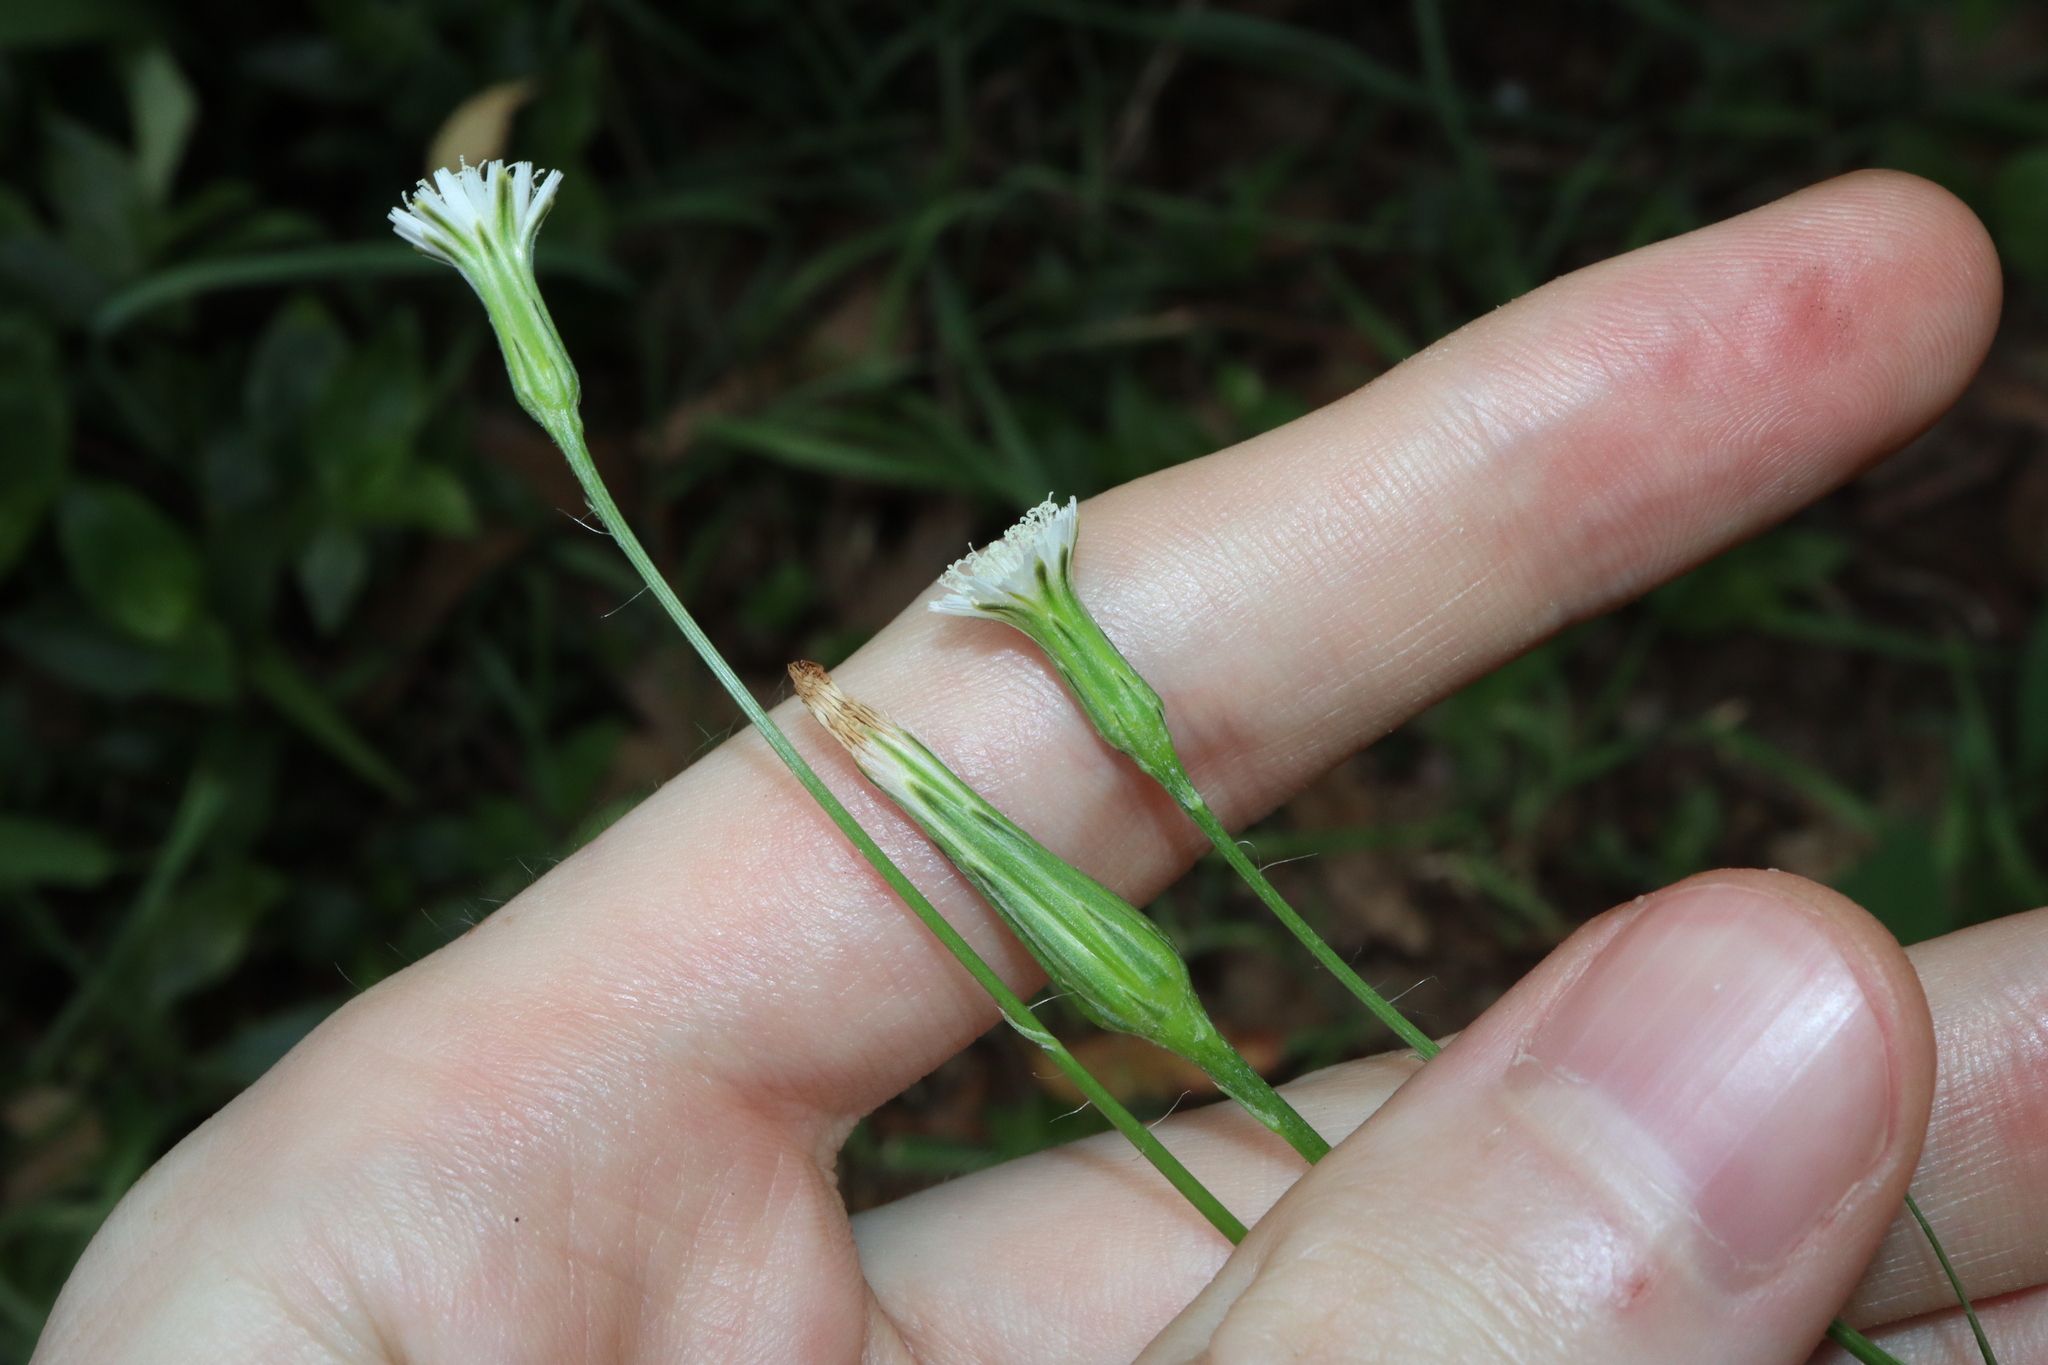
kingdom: Plantae
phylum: Tracheophyta
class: Magnoliopsida
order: Asterales
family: Asteraceae
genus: Hypochaeris
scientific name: Hypochaeris albiflora
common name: White flatweed
